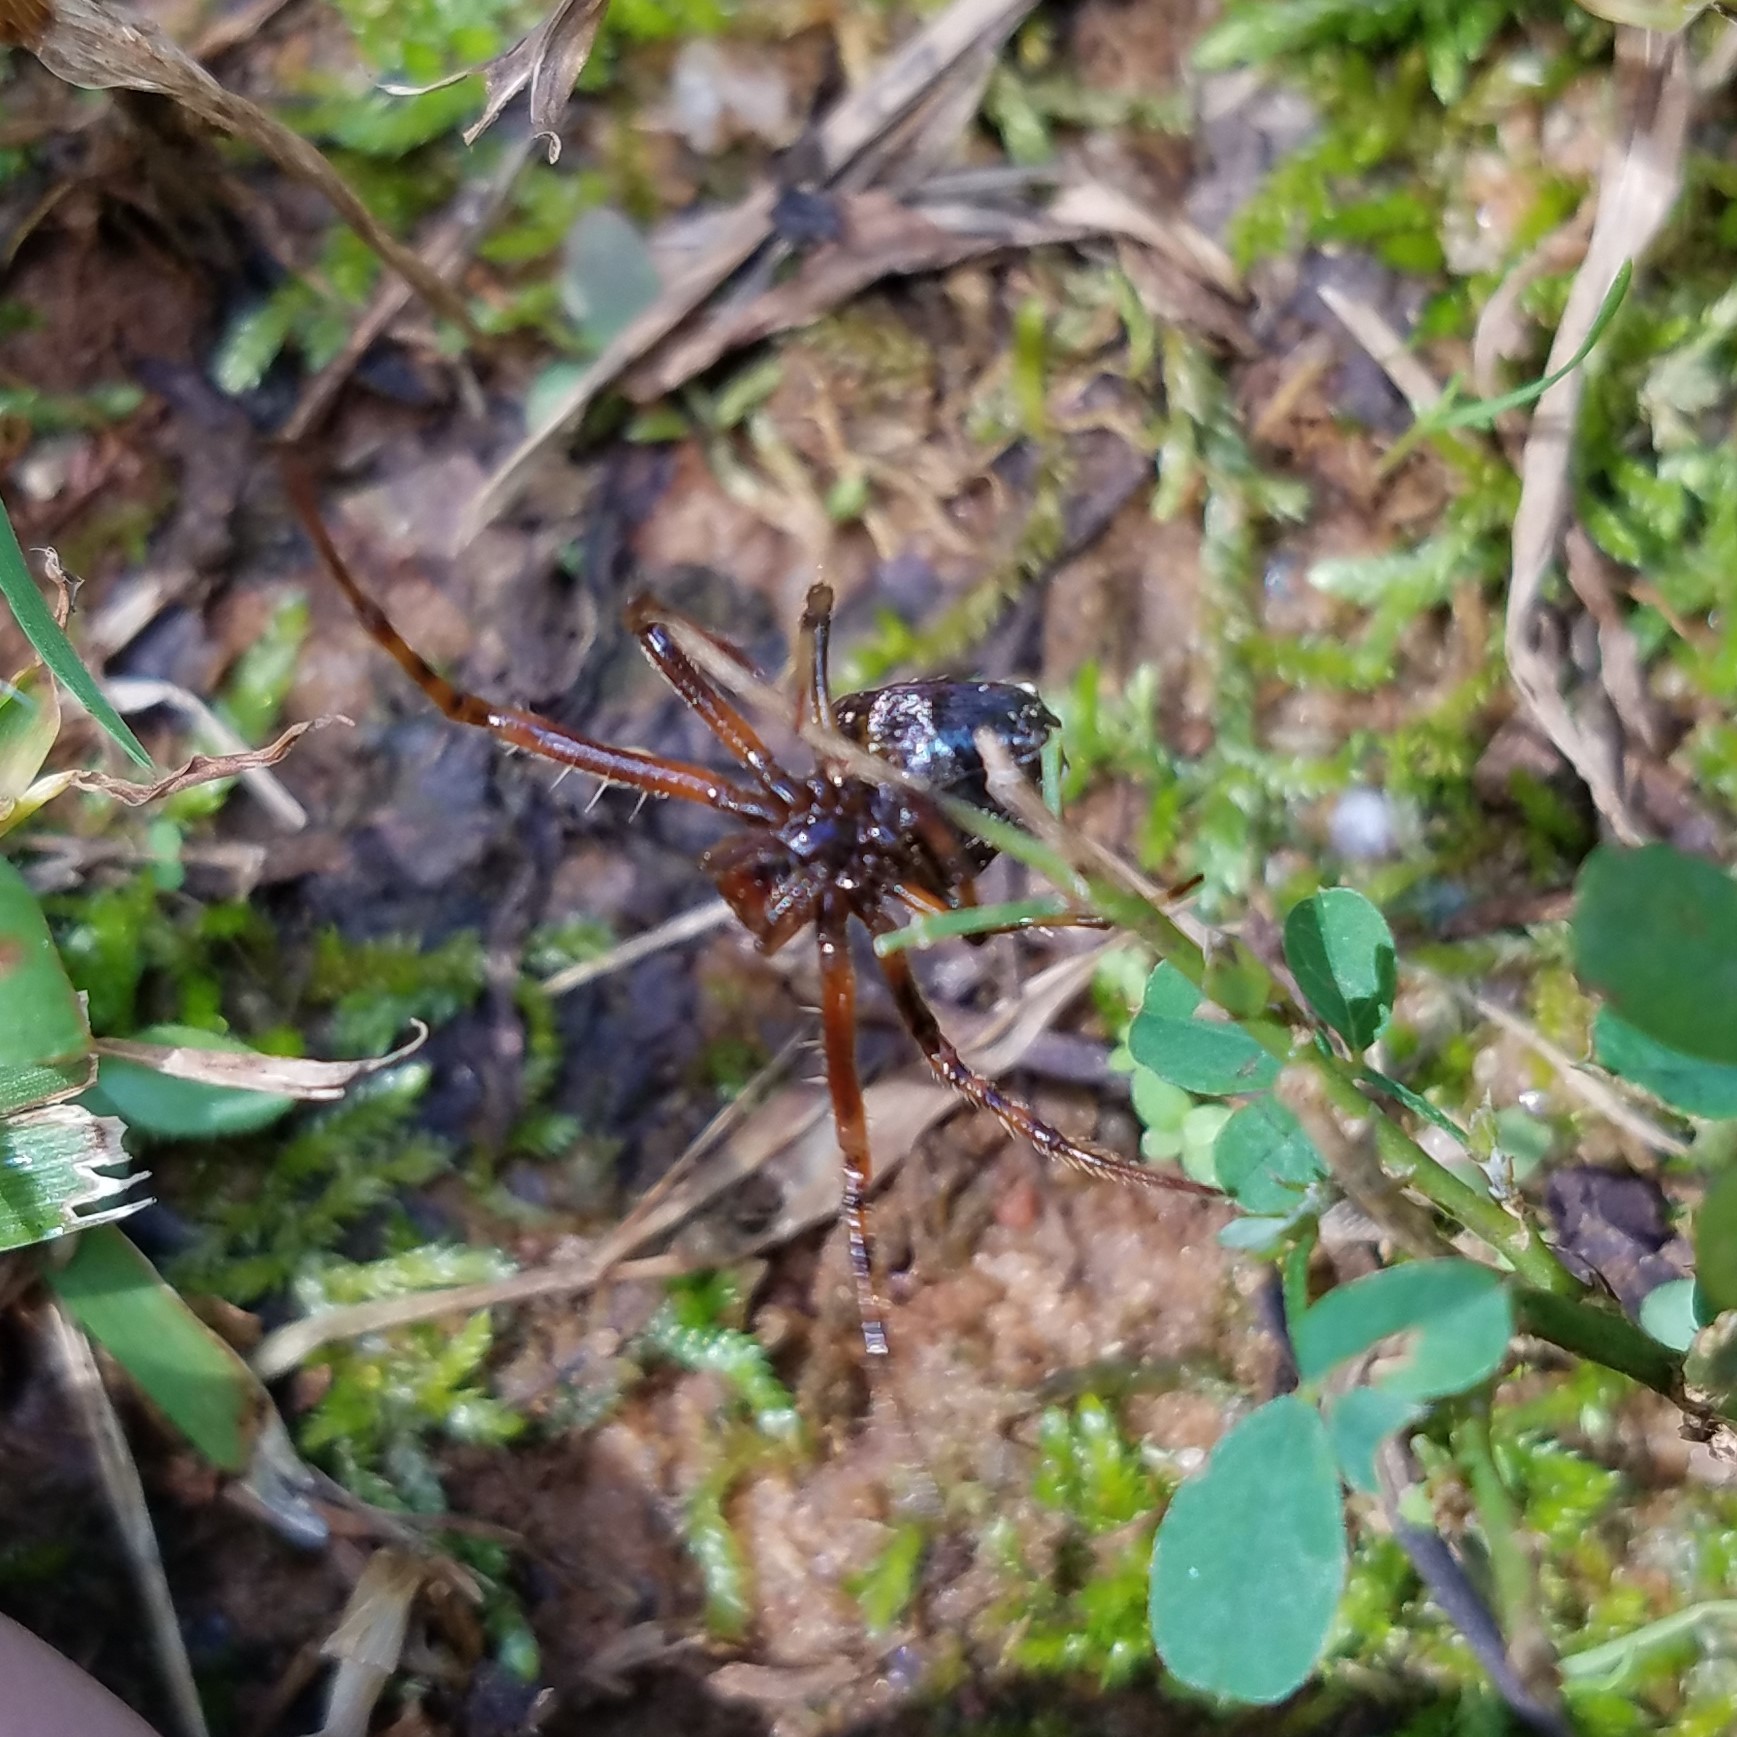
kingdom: Animalia
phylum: Arthropoda
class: Arachnida
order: Araneae
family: Araneidae
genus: Verrucosa
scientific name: Verrucosa arenata
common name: Orb weavers
